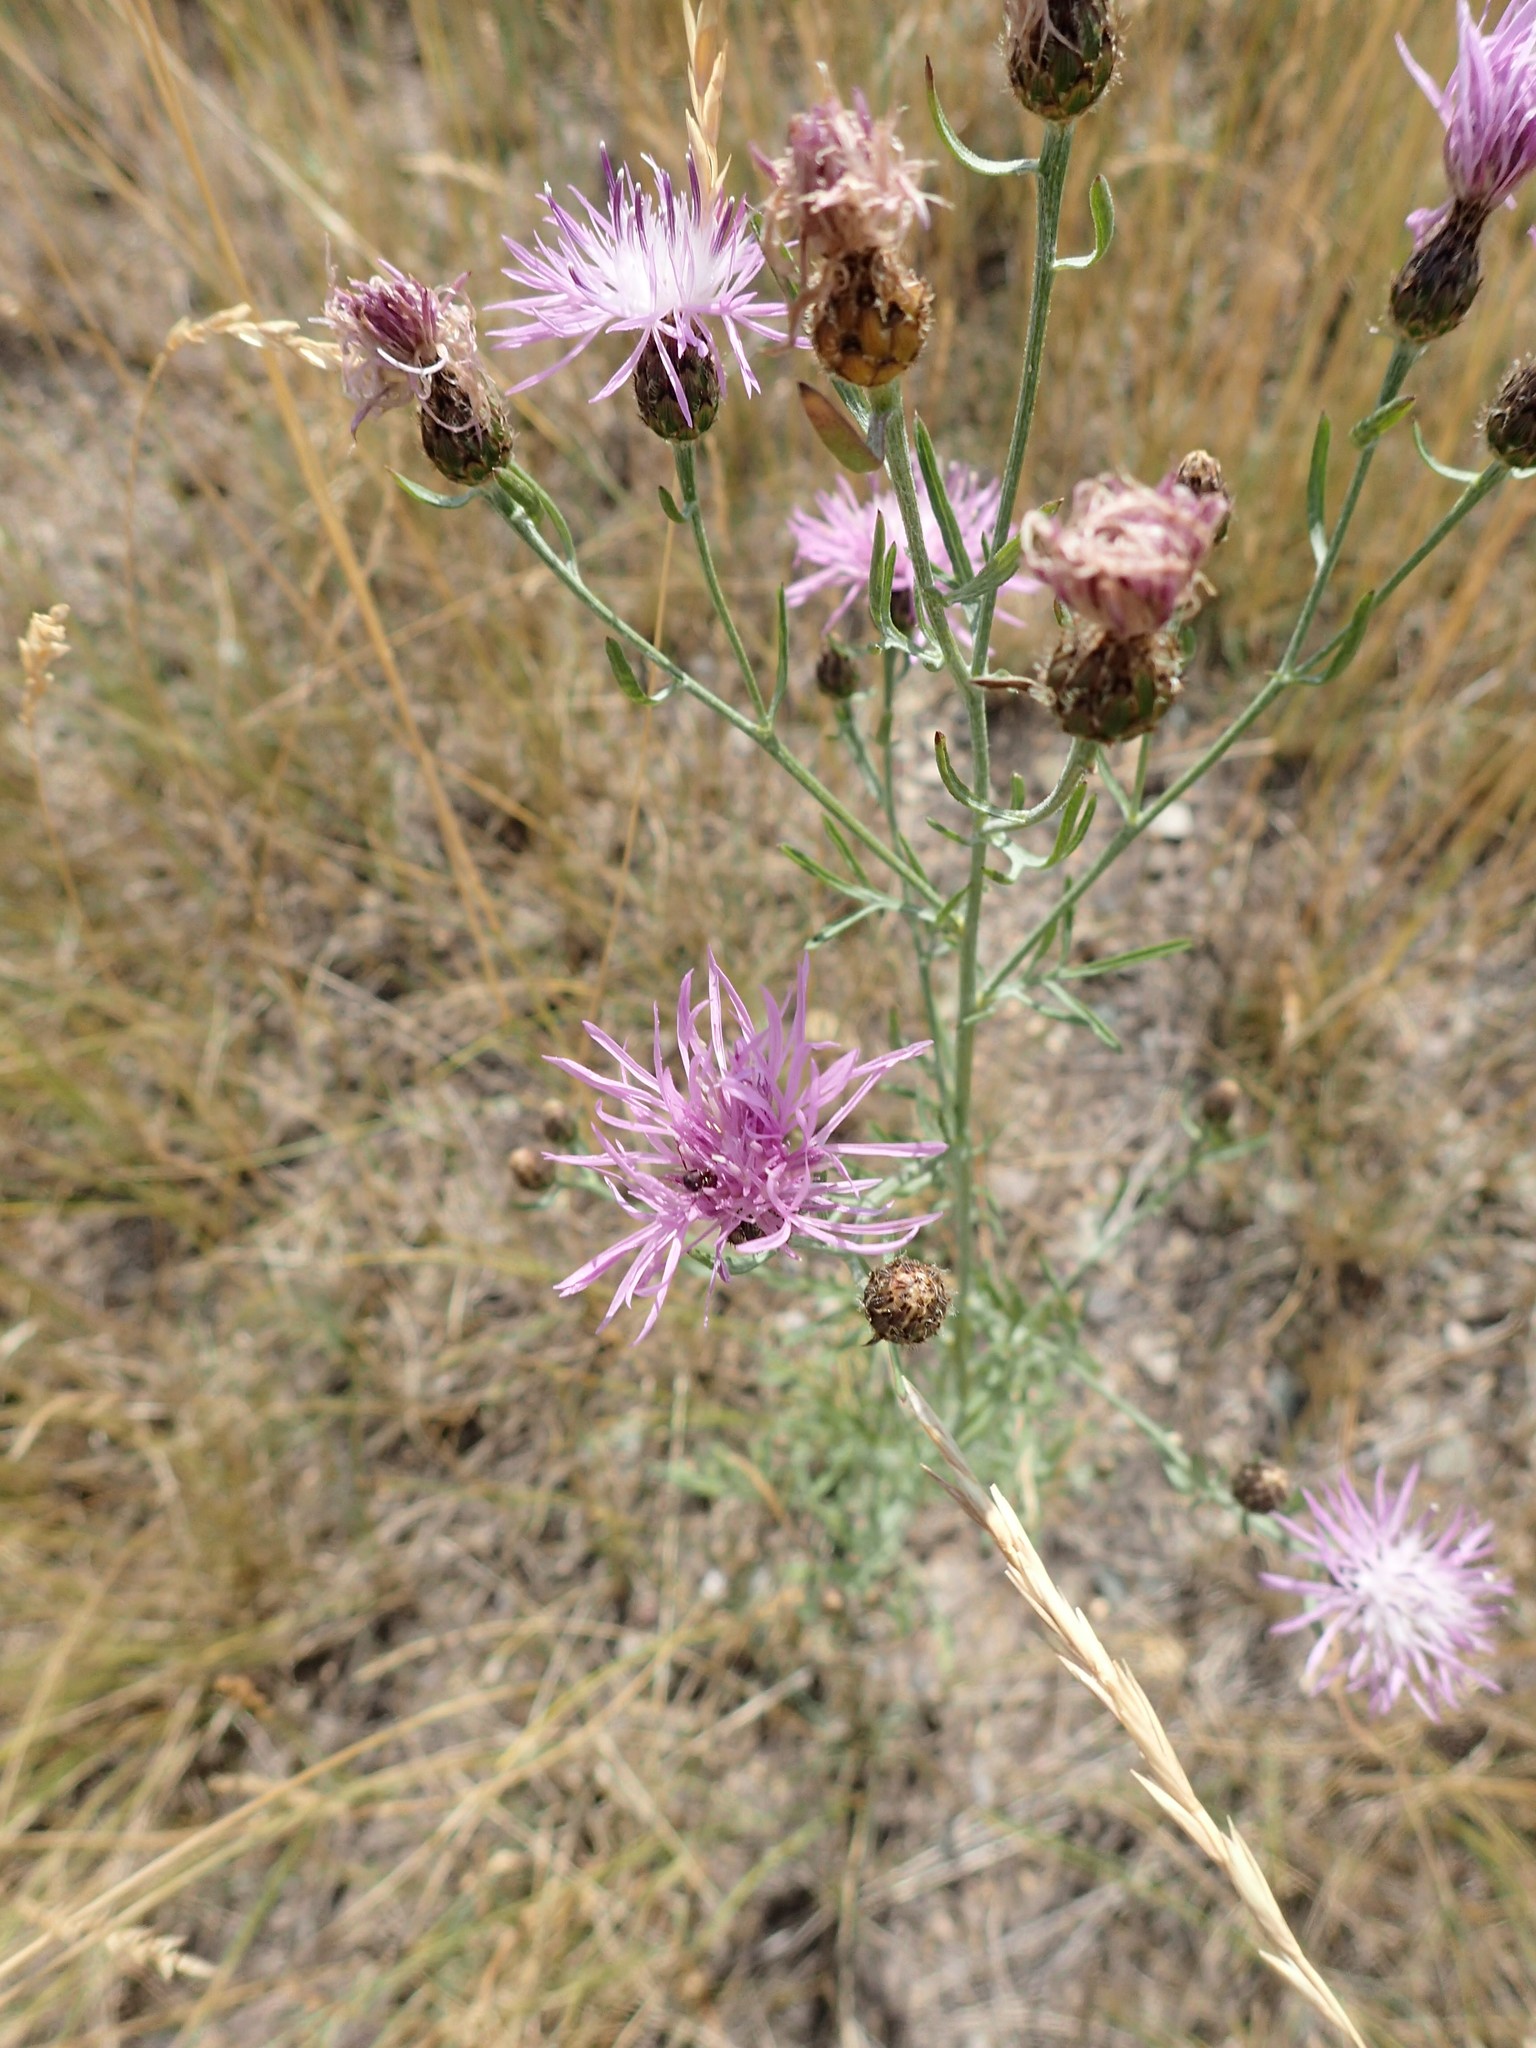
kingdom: Plantae
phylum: Tracheophyta
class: Magnoliopsida
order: Asterales
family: Asteraceae
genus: Centaurea
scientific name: Centaurea stoebe
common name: Spotted knapweed
